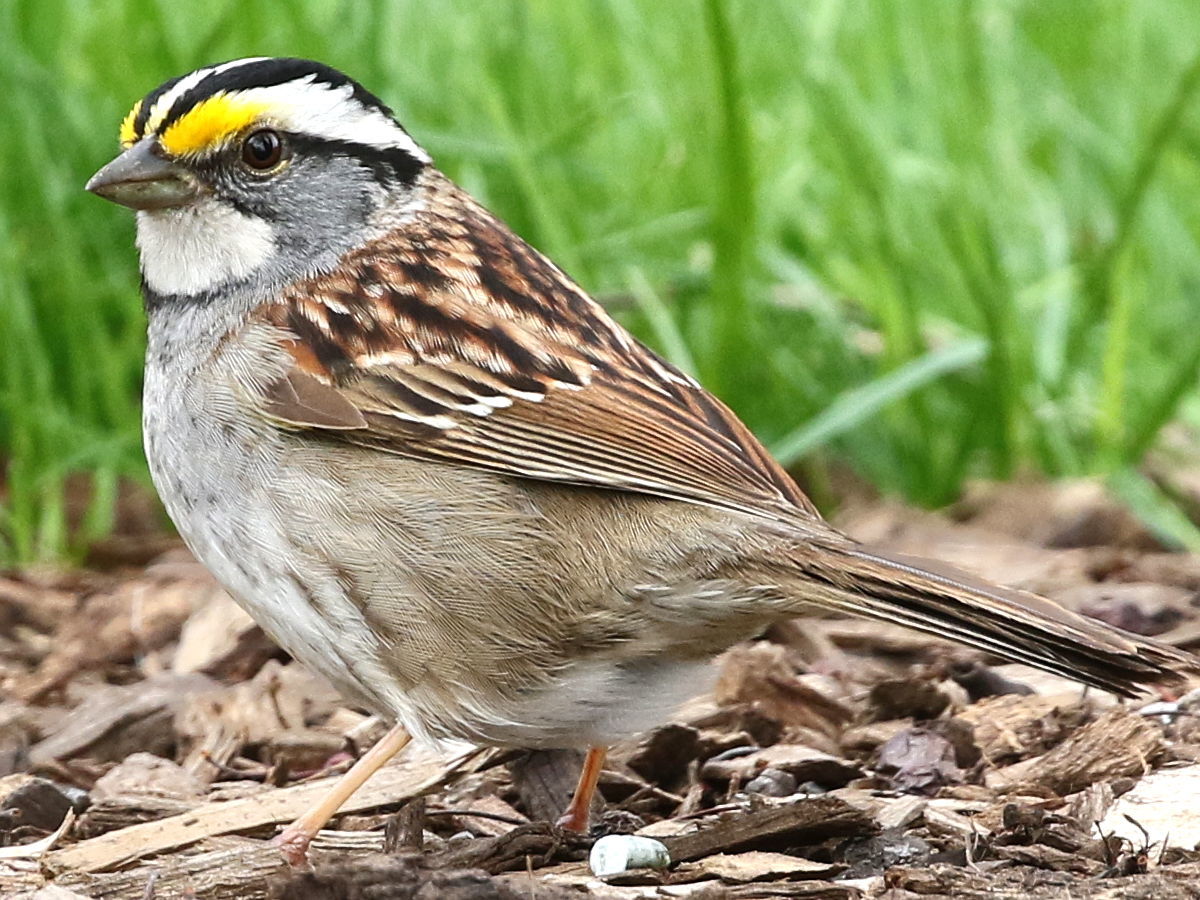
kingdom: Animalia
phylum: Chordata
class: Aves
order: Passeriformes
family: Passerellidae
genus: Zonotrichia
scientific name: Zonotrichia albicollis
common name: White-throated sparrow
